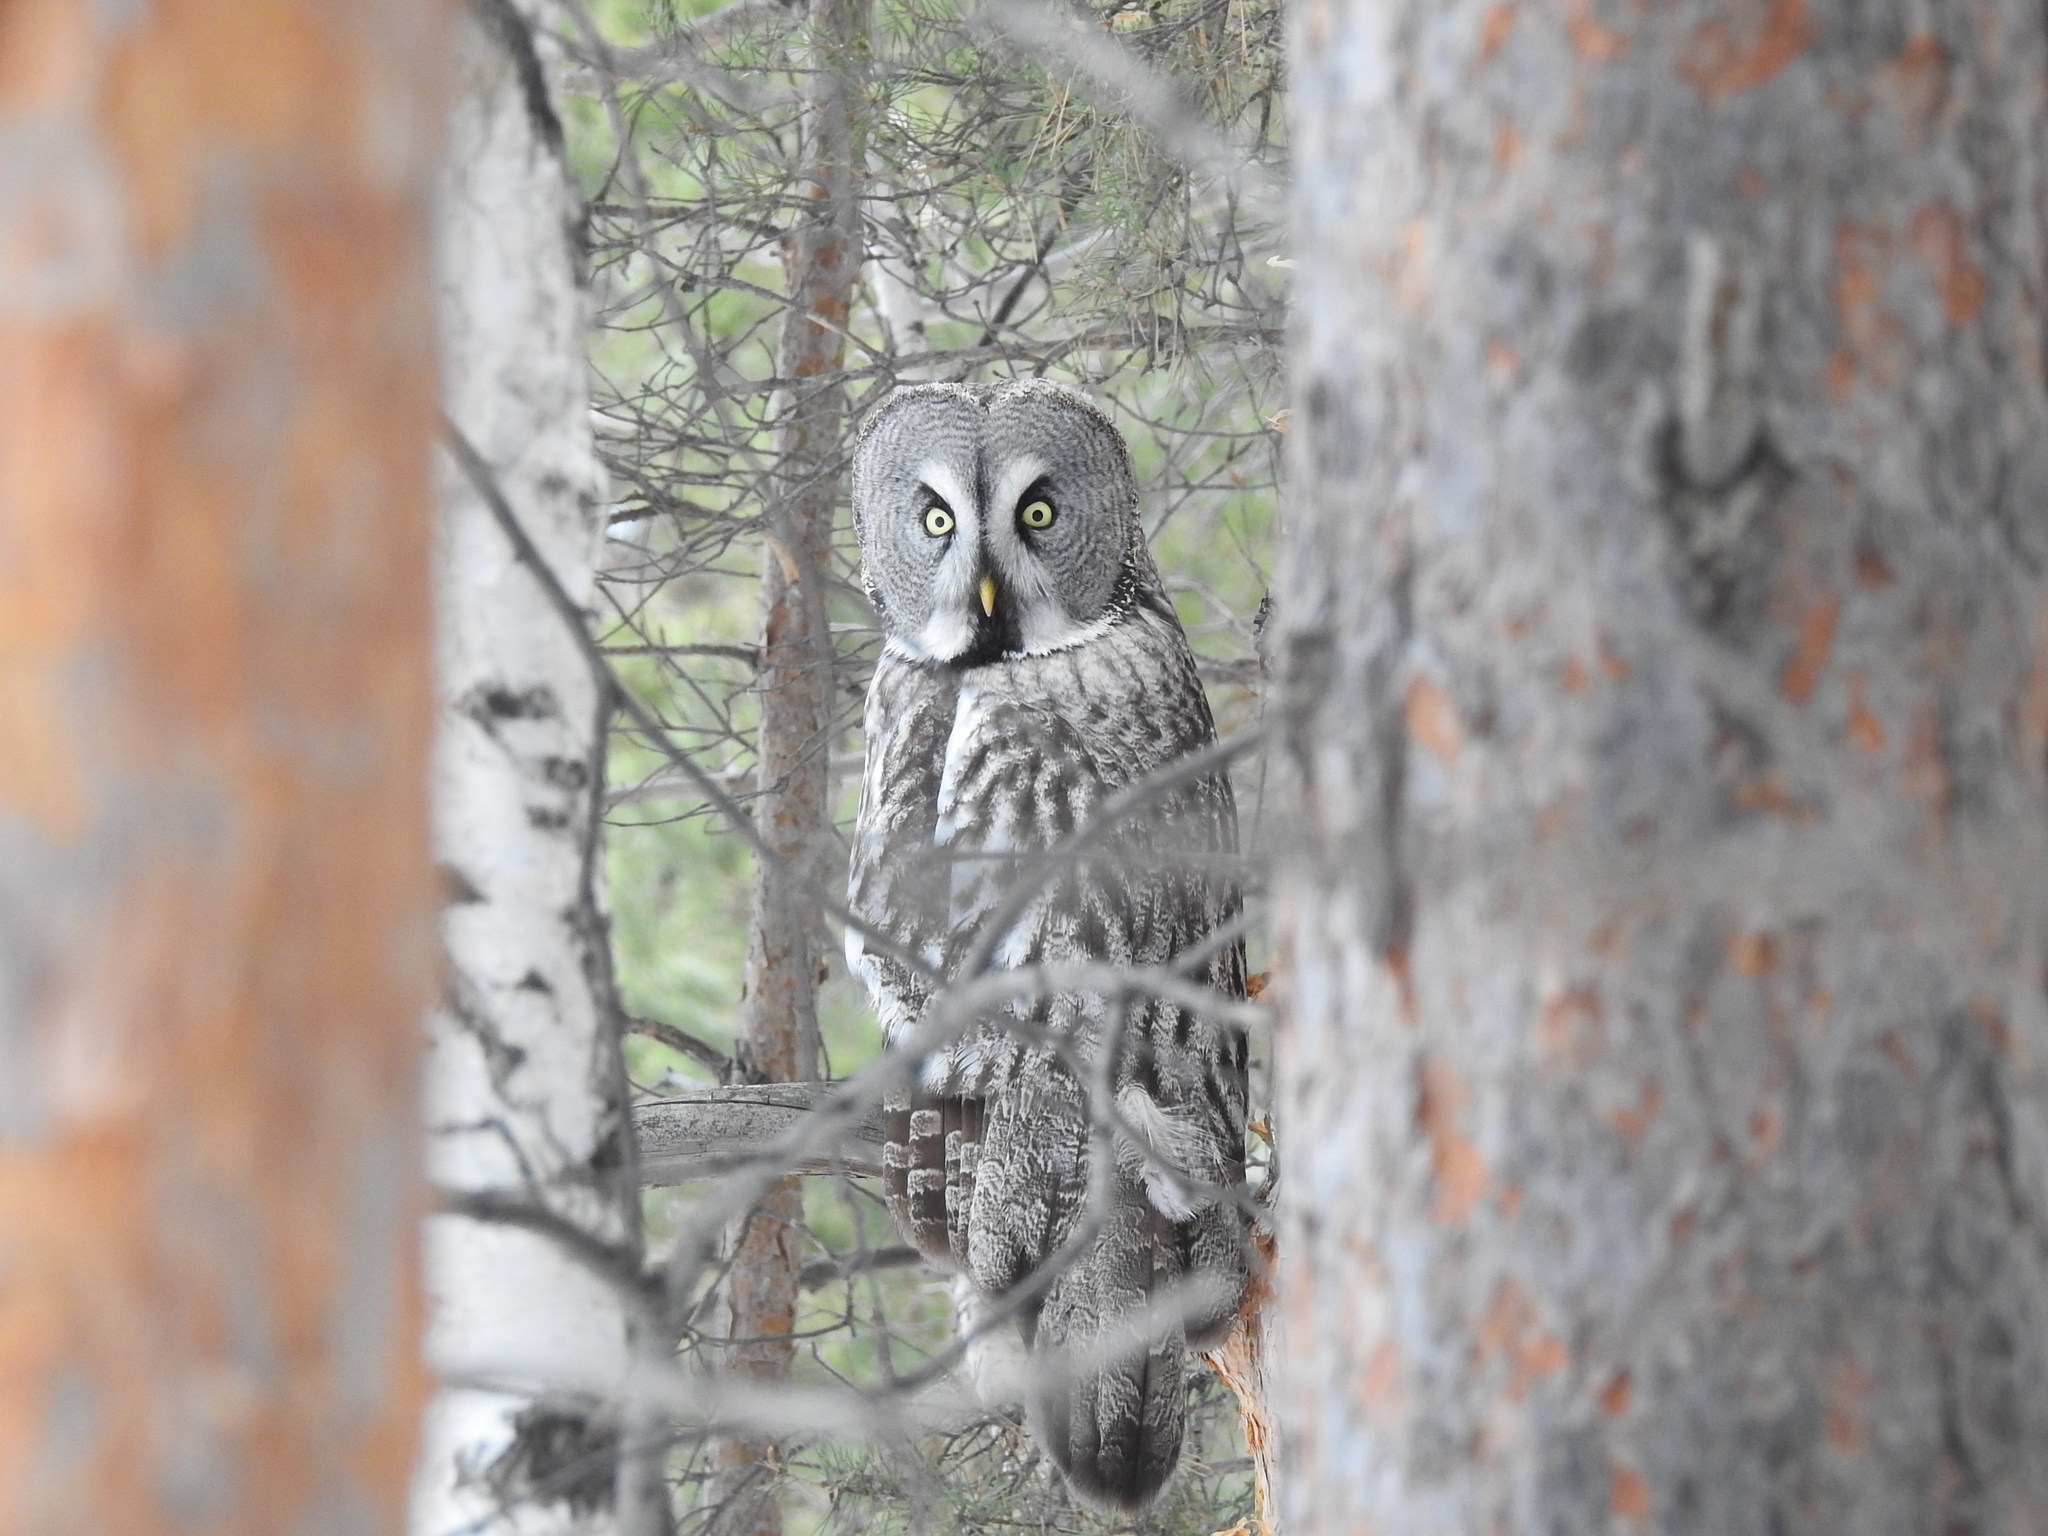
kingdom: Animalia
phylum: Chordata
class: Aves
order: Strigiformes
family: Strigidae
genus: Strix
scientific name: Strix nebulosa
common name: Great grey owl
